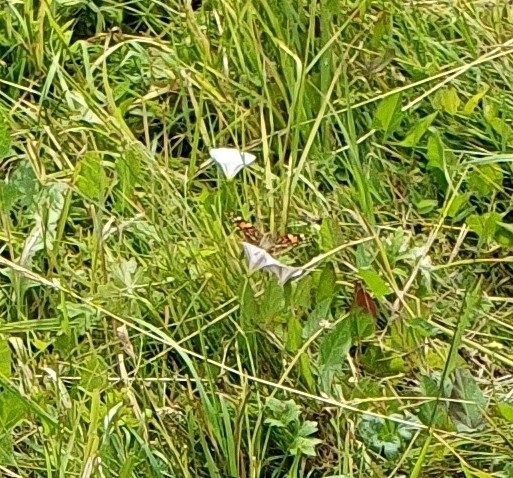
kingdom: Animalia
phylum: Arthropoda
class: Insecta
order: Lepidoptera
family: Nymphalidae
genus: Vanessa
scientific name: Vanessa cardui
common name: Painted lady
